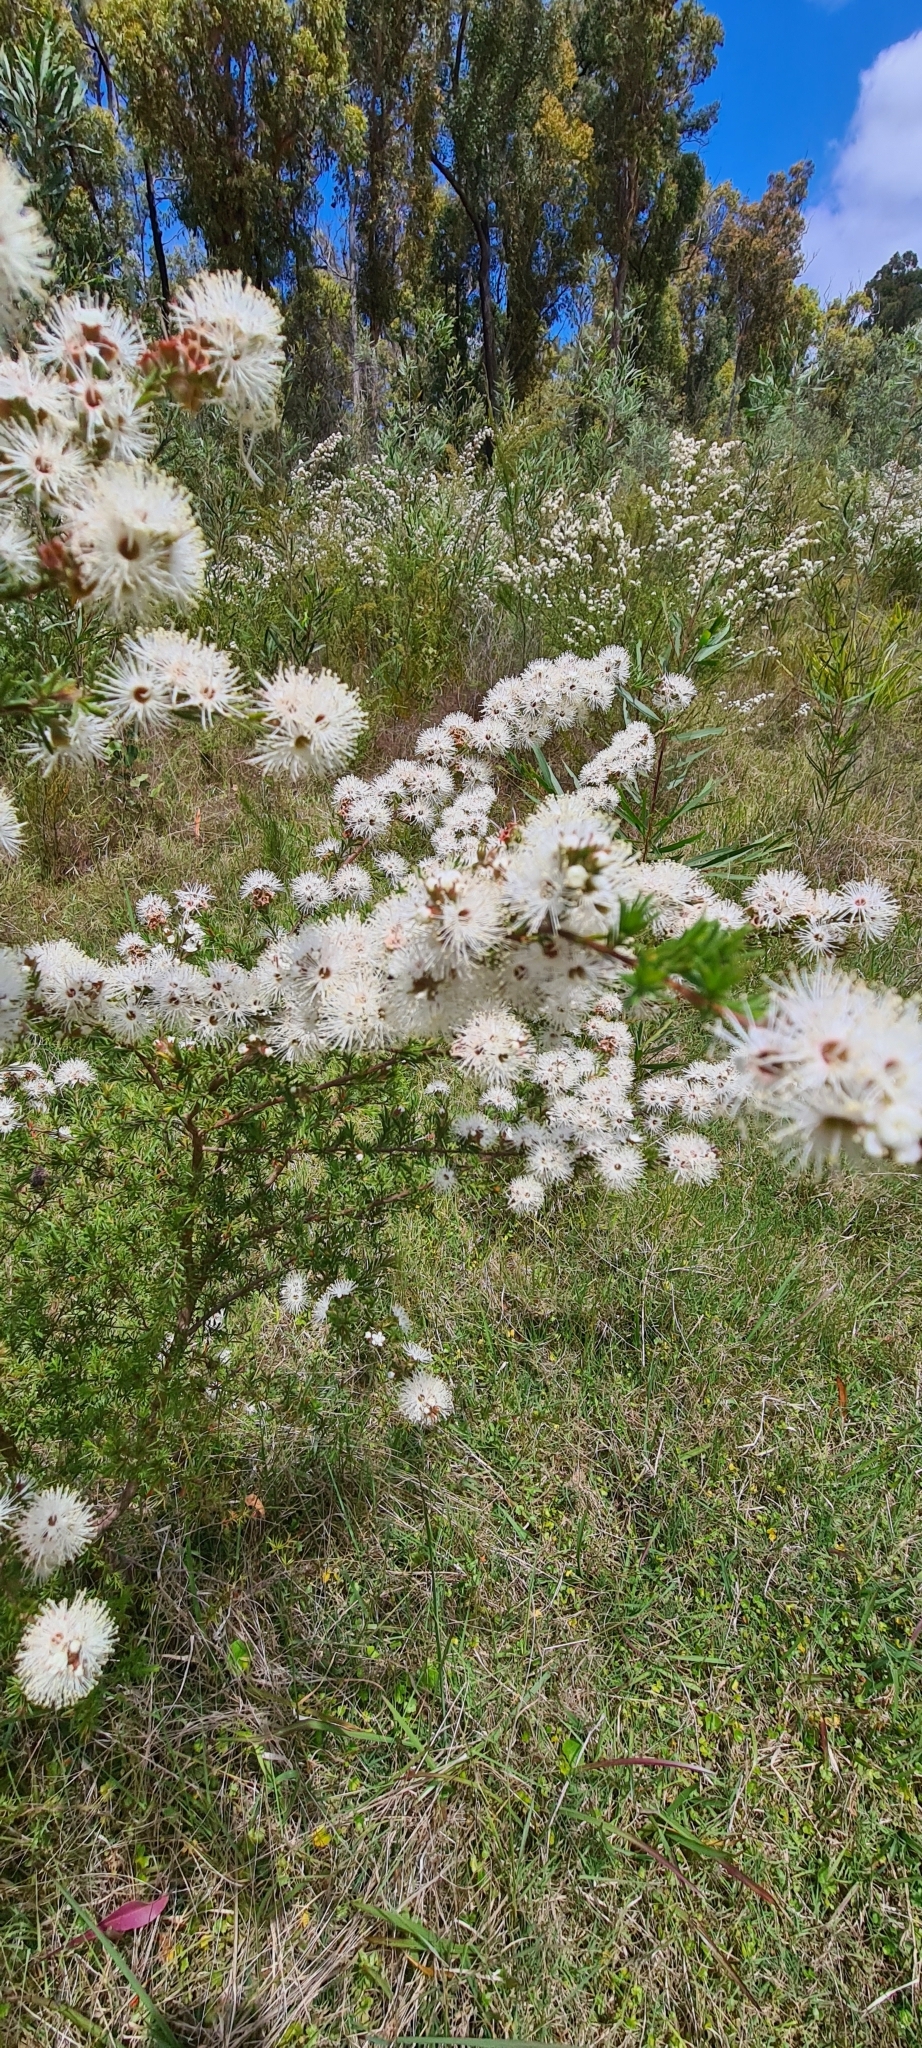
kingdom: Plantae
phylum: Tracheophyta
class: Magnoliopsida
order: Myrtales
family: Myrtaceae
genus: Kunzea
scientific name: Kunzea ambigua
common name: Tickbush
